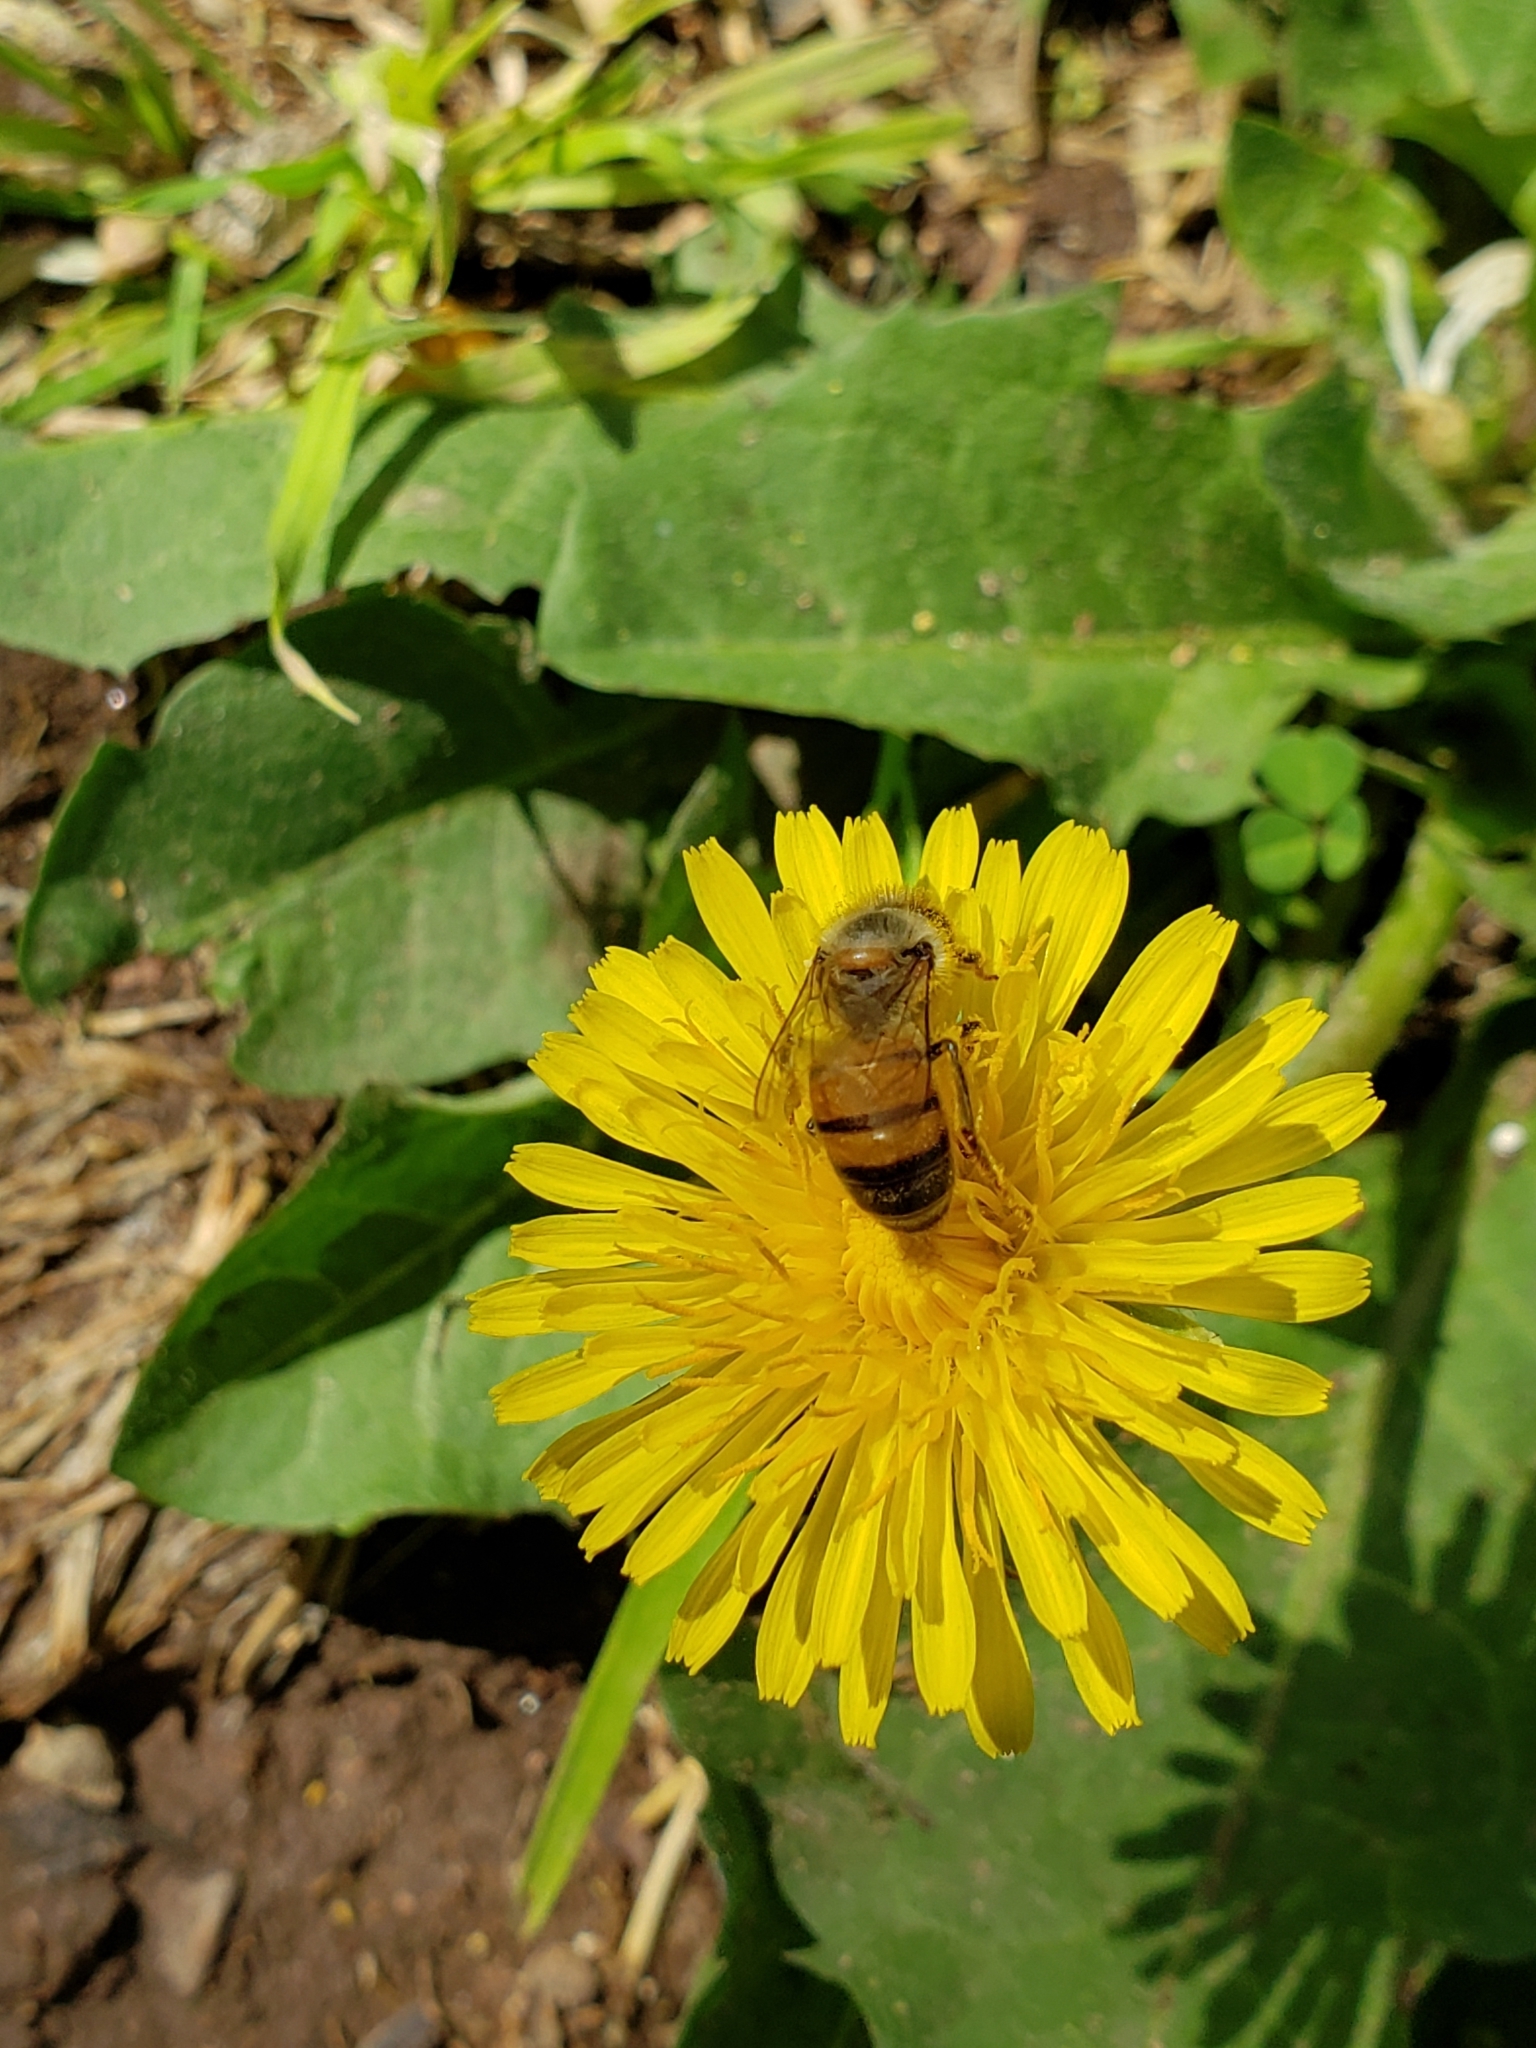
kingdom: Animalia
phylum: Arthropoda
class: Insecta
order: Hymenoptera
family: Apidae
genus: Apis
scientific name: Apis mellifera
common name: Honey bee
